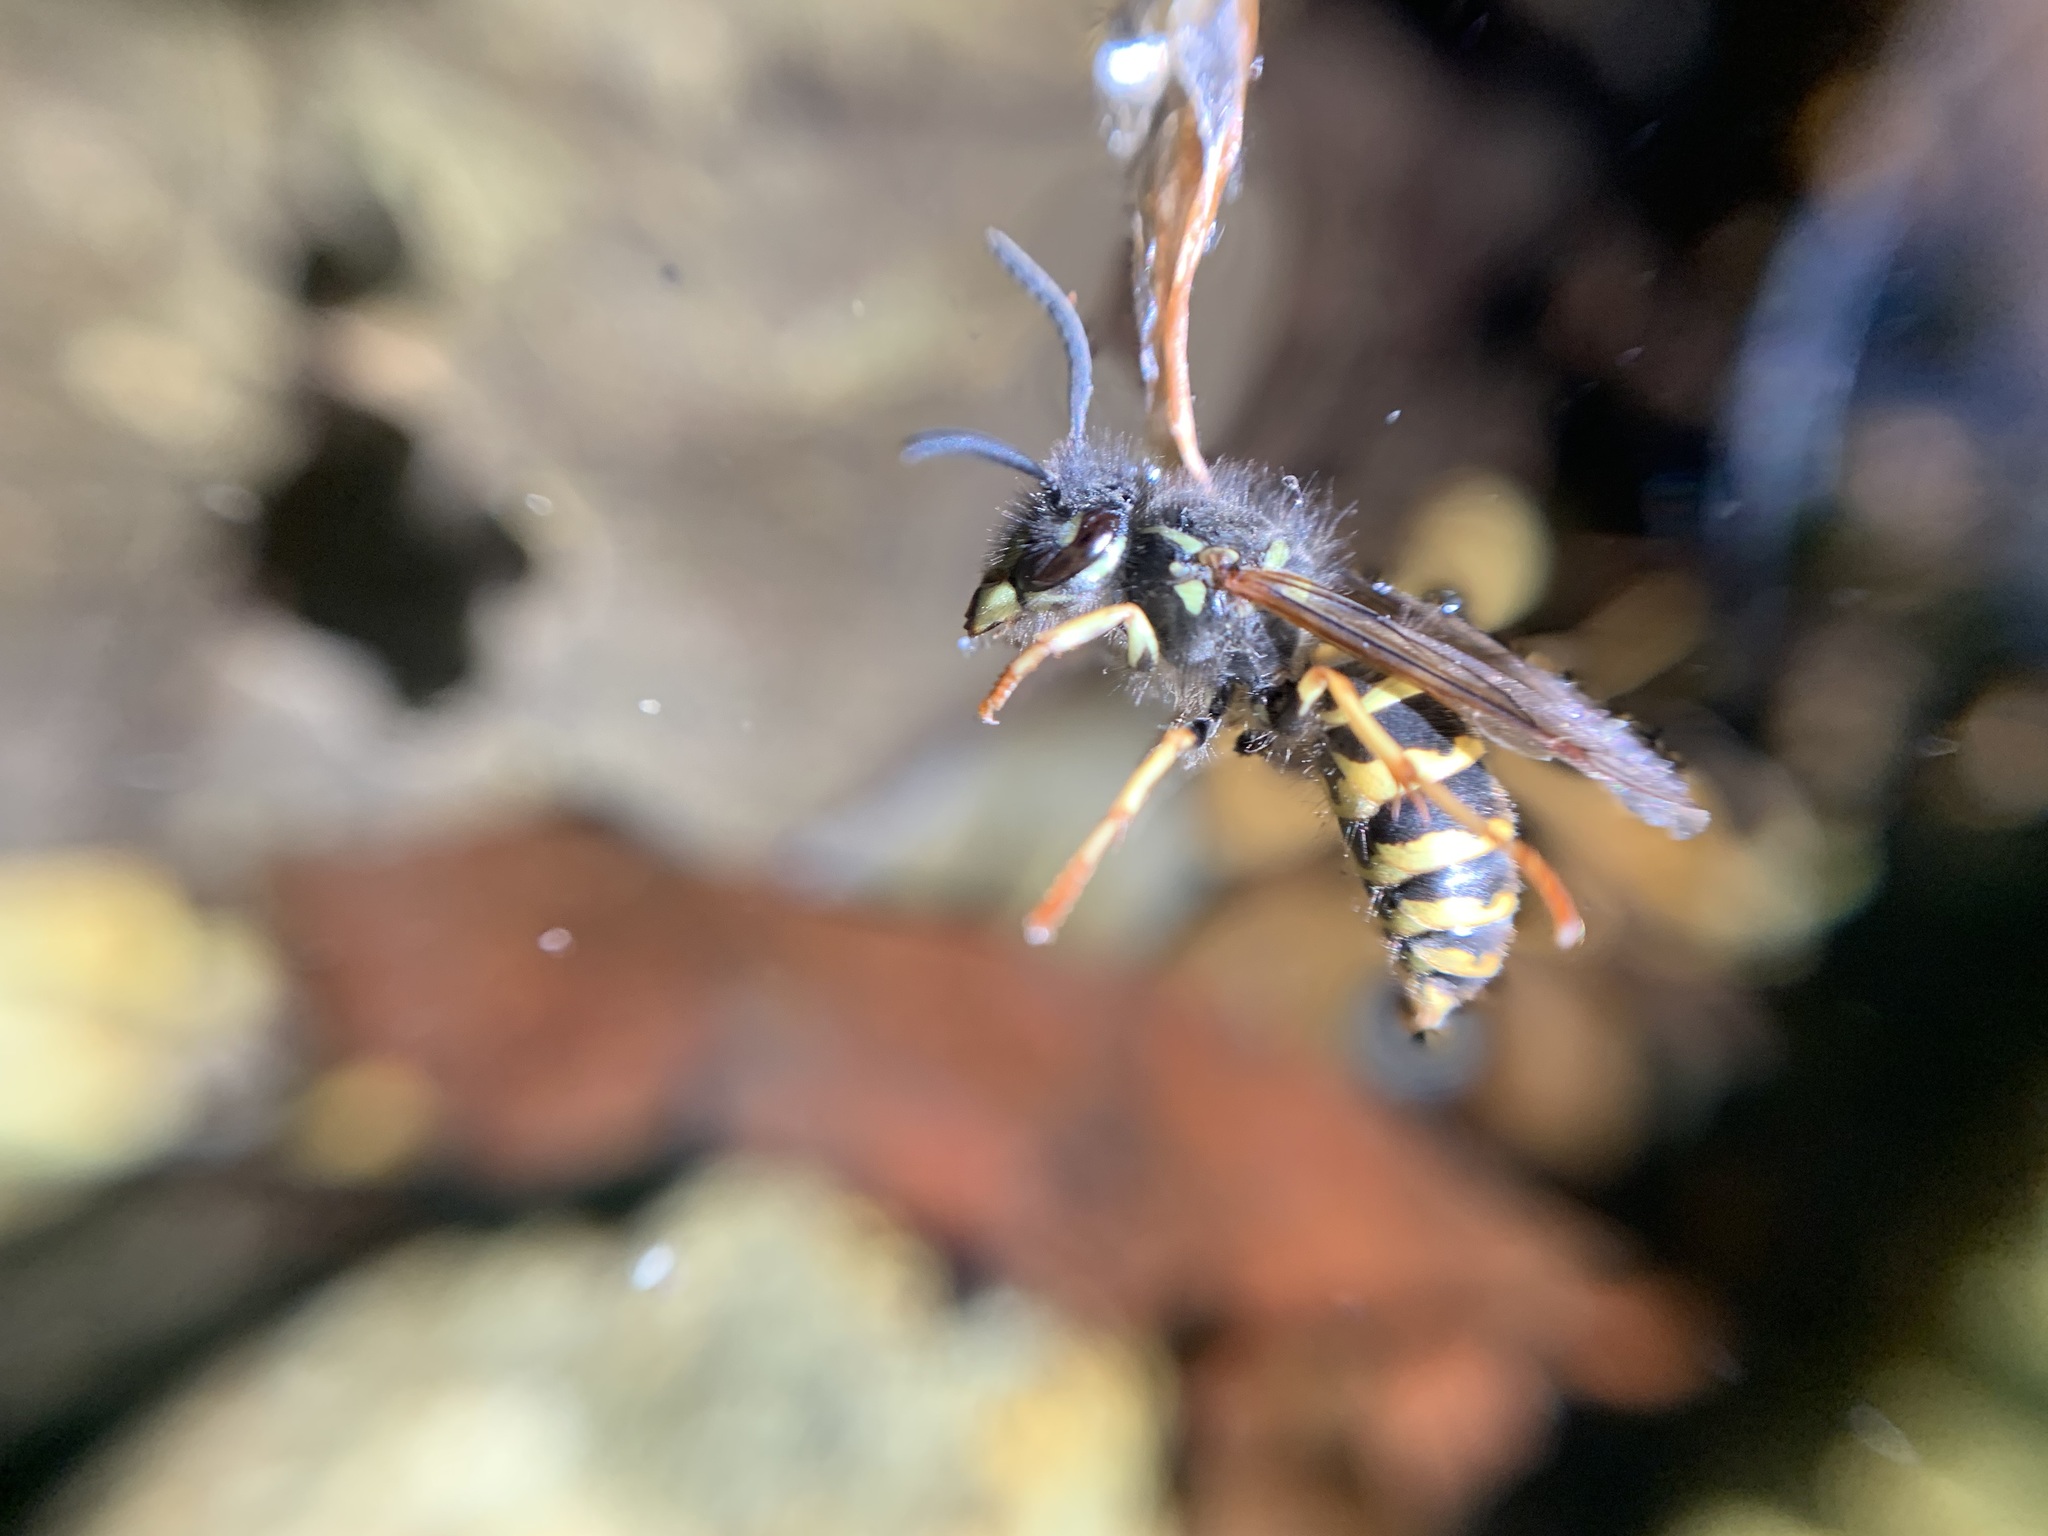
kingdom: Animalia
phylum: Arthropoda
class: Insecta
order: Hymenoptera
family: Vespidae
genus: Vespula
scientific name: Vespula alascensis
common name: Alaska yellowjacket
